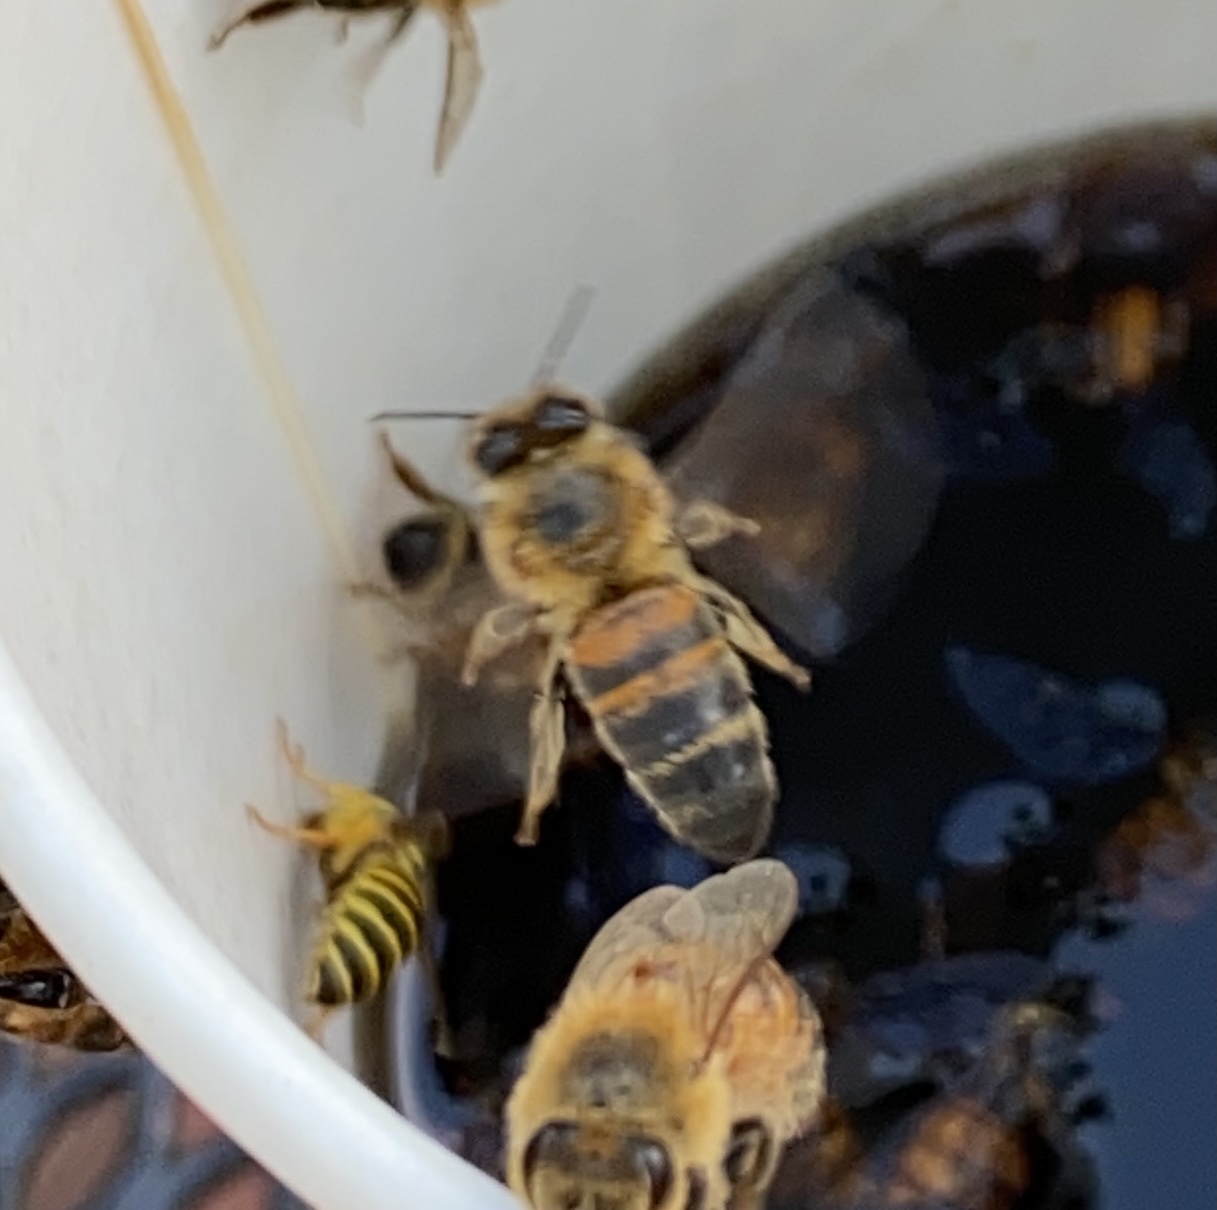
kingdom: Animalia
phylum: Arthropoda
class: Insecta
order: Hymenoptera
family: Apidae
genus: Apis
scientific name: Apis mellifera
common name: Honey bee
